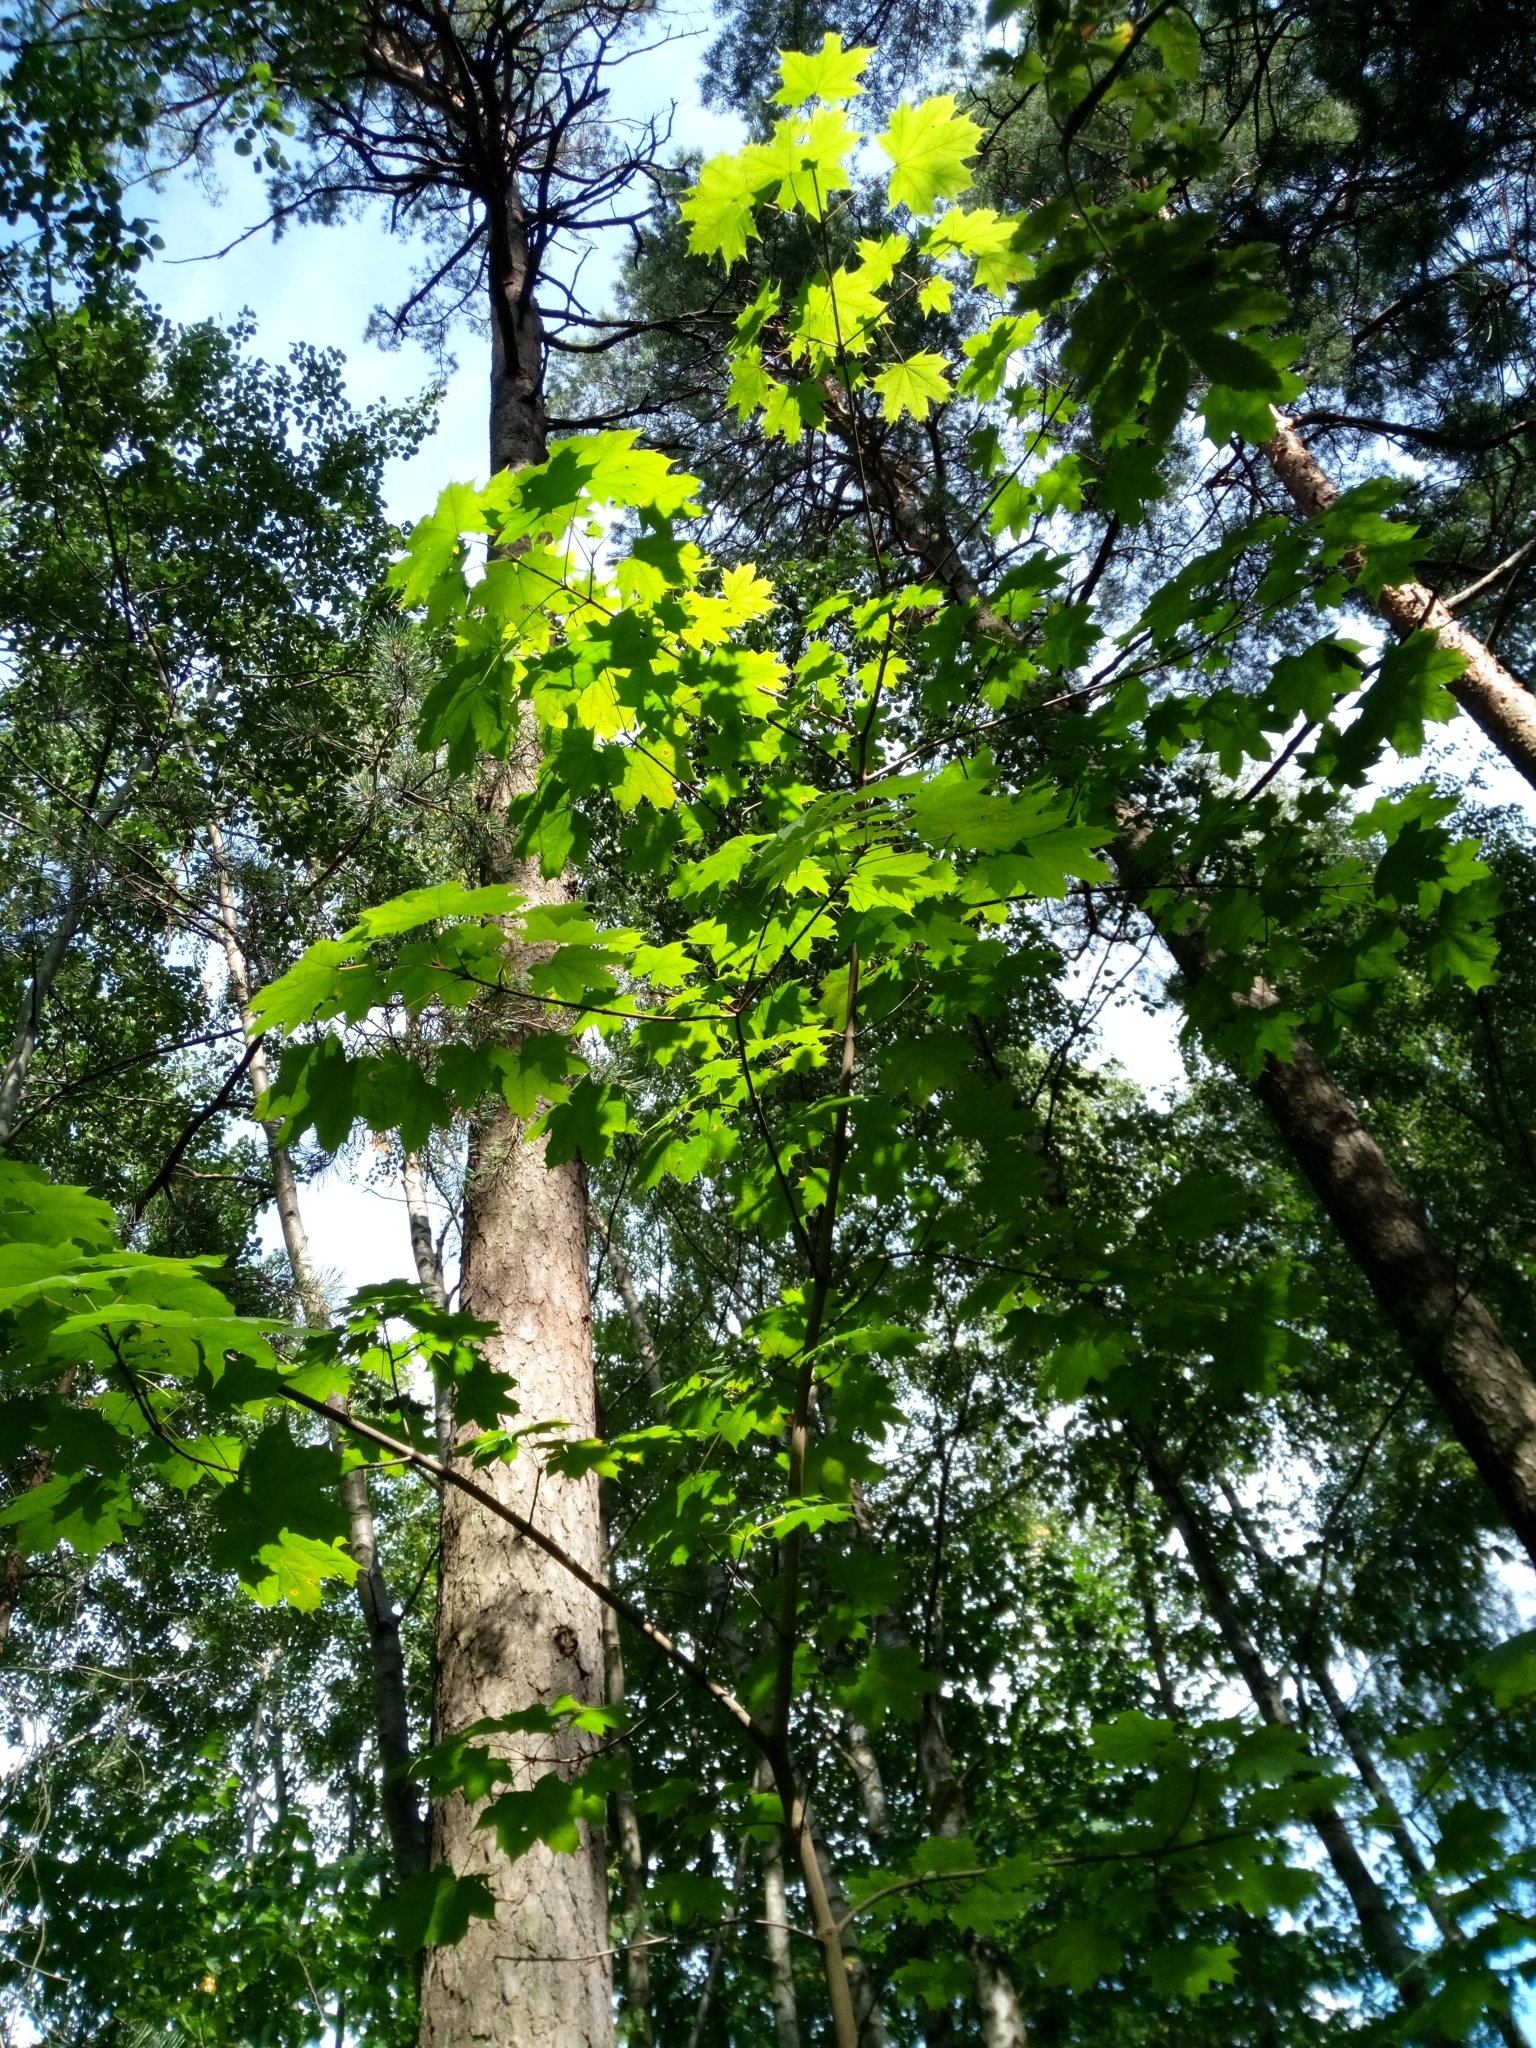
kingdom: Plantae
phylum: Tracheophyta
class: Magnoliopsida
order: Sapindales
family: Sapindaceae
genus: Acer
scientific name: Acer platanoides
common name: Norway maple
